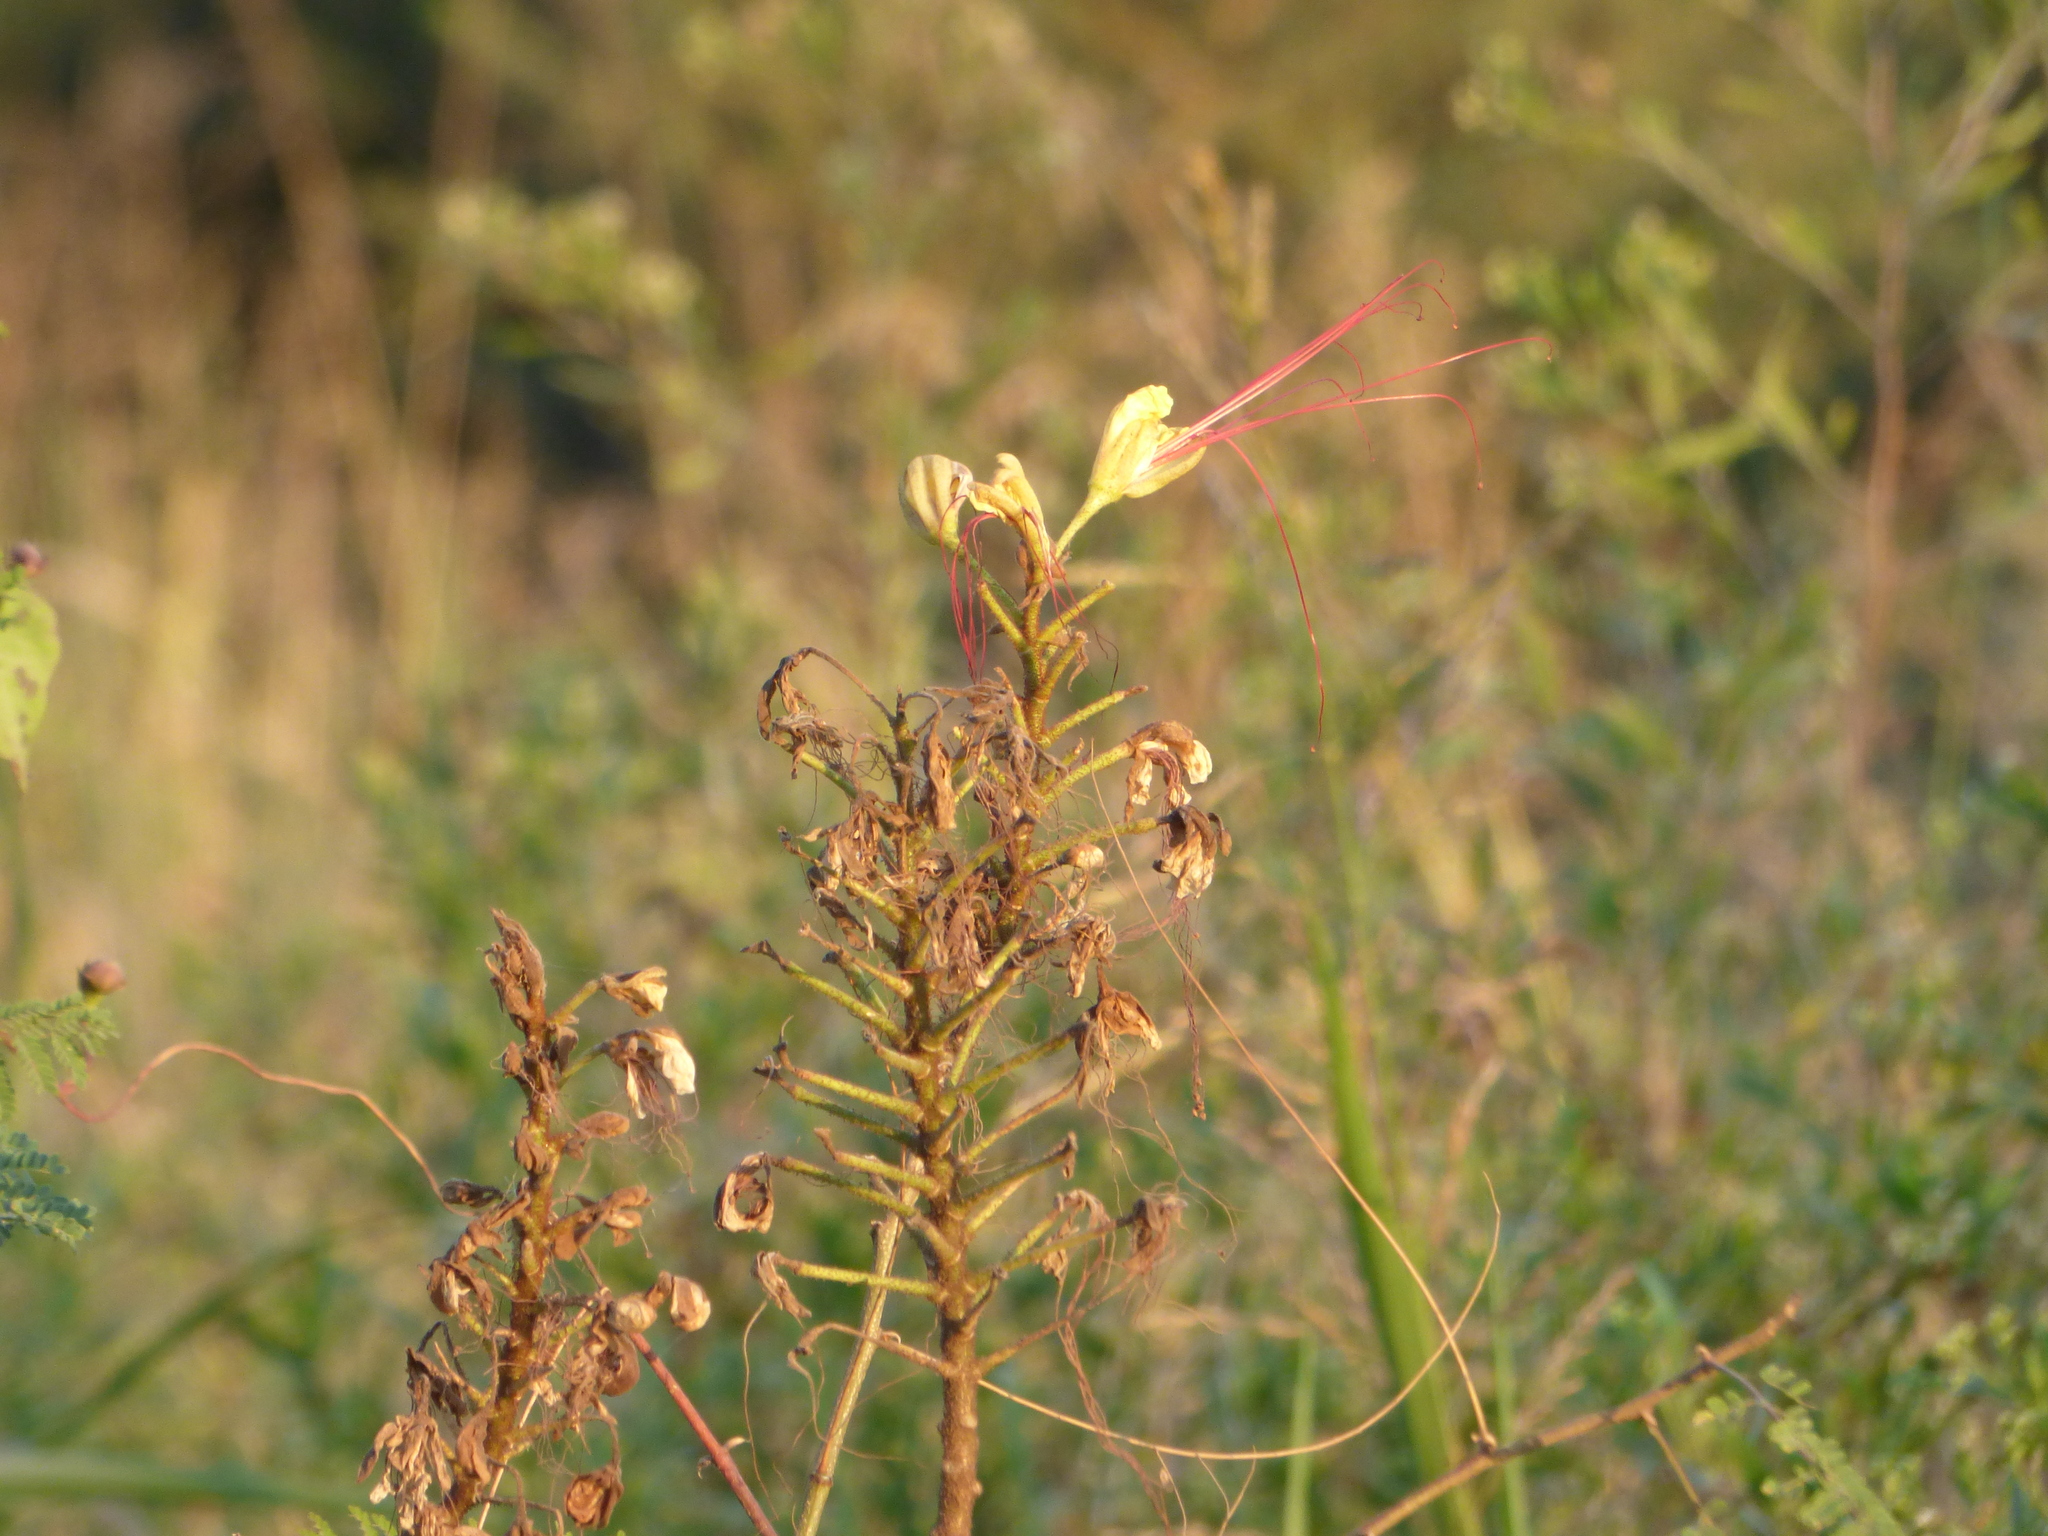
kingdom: Plantae
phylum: Tracheophyta
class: Magnoliopsida
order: Fabales
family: Fabaceae
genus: Erythrostemon
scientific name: Erythrostemon gilliesii
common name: Bird-of-paradise shrub
